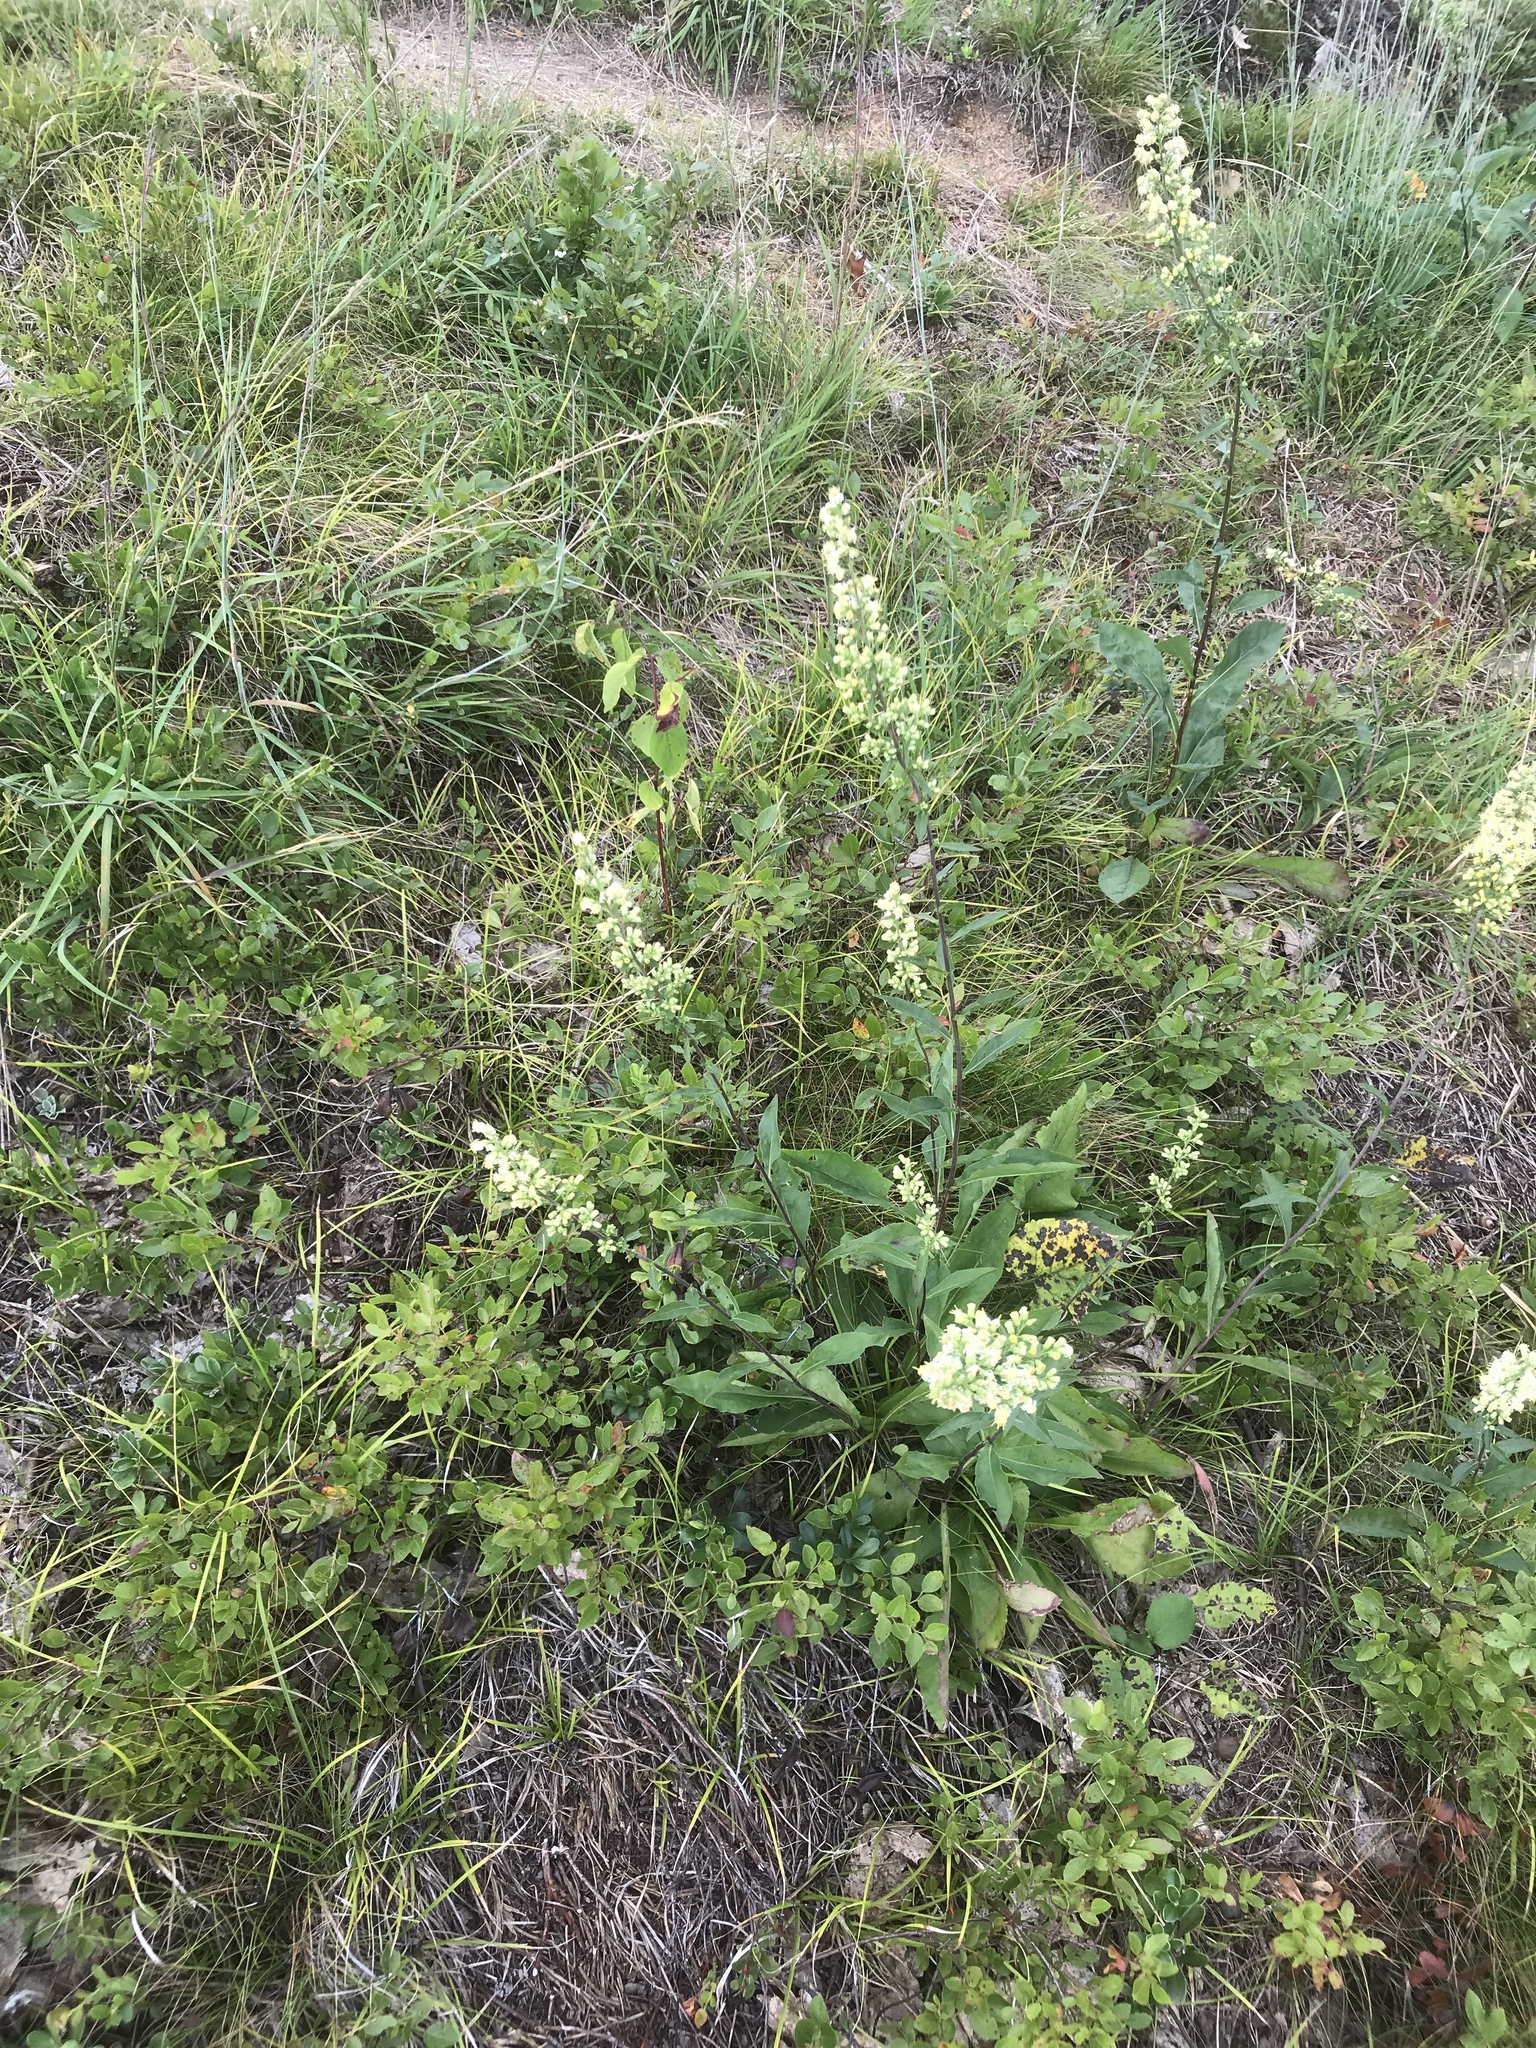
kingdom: Plantae
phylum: Tracheophyta
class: Magnoliopsida
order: Asterales
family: Asteraceae
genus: Solidago
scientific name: Solidago bicolor
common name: Silverrod
